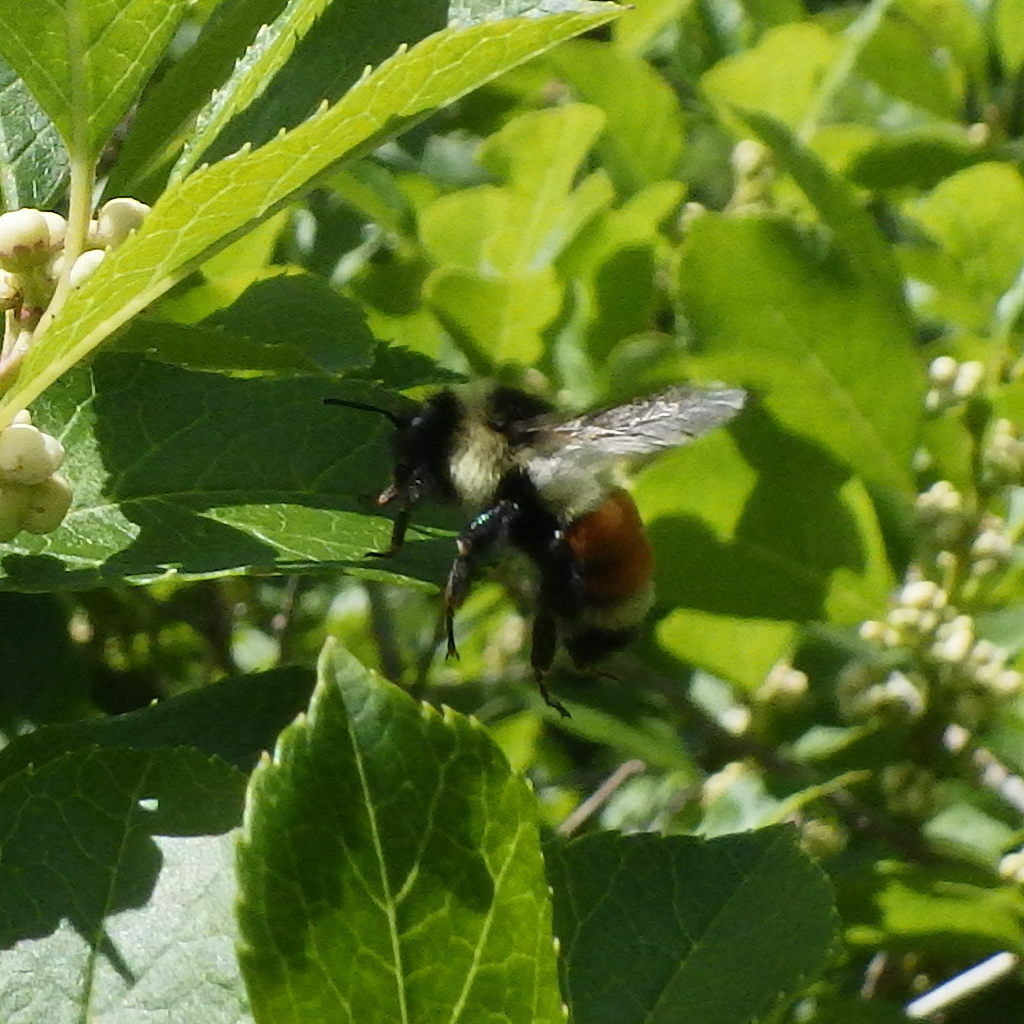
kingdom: Animalia
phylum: Arthropoda
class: Insecta
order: Hymenoptera
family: Apidae
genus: Bombus
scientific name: Bombus ternarius
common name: Tri-colored bumble bee
